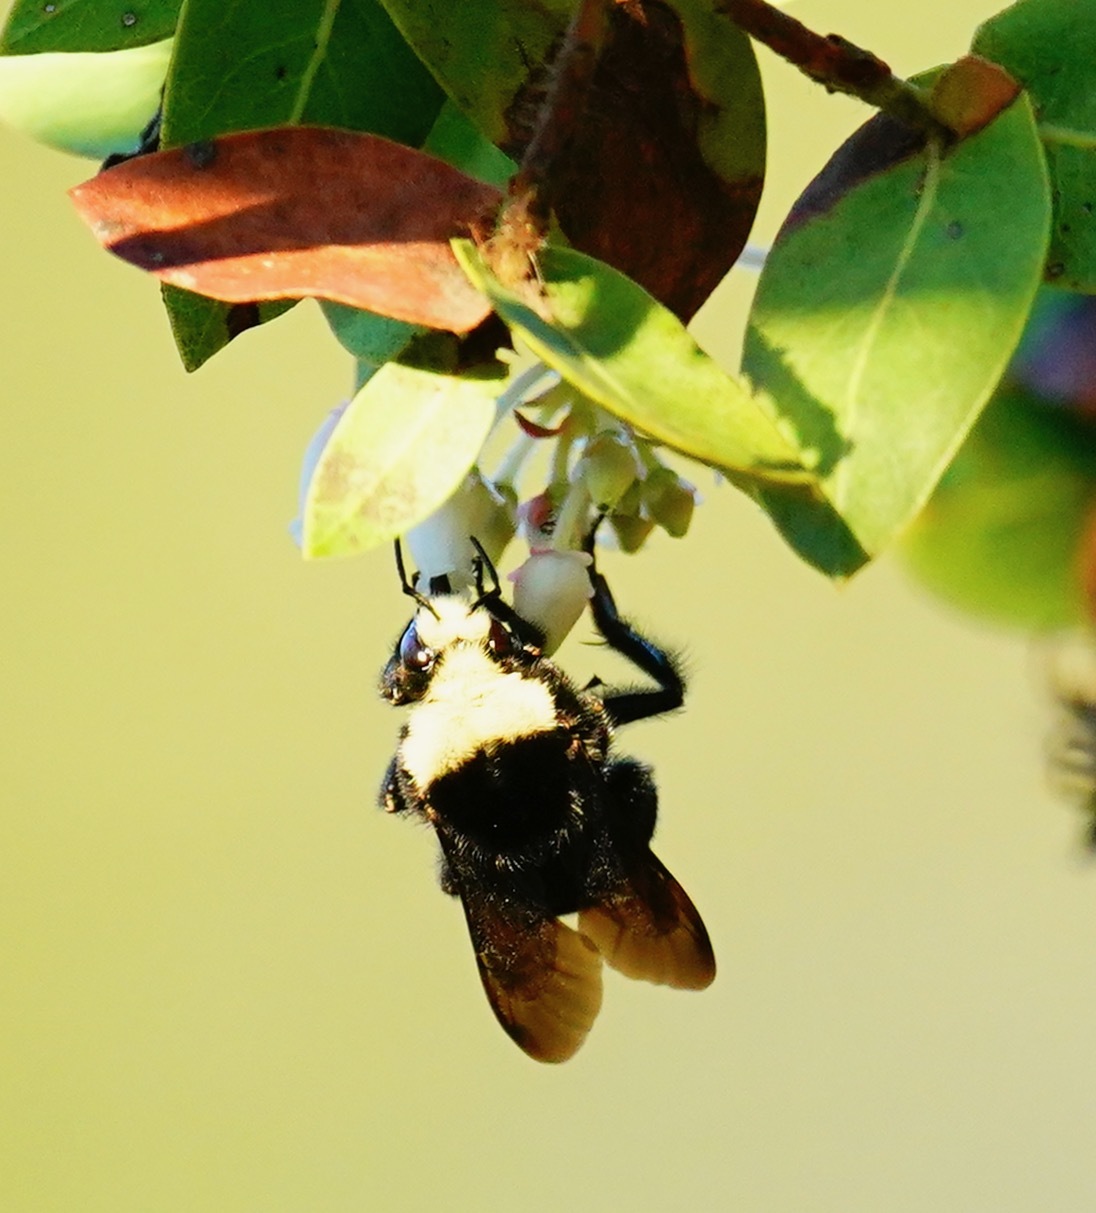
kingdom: Animalia
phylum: Arthropoda
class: Insecta
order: Hymenoptera
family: Apidae
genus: Bombus
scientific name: Bombus vosnesenskii
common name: Vosnesensky bumble bee
